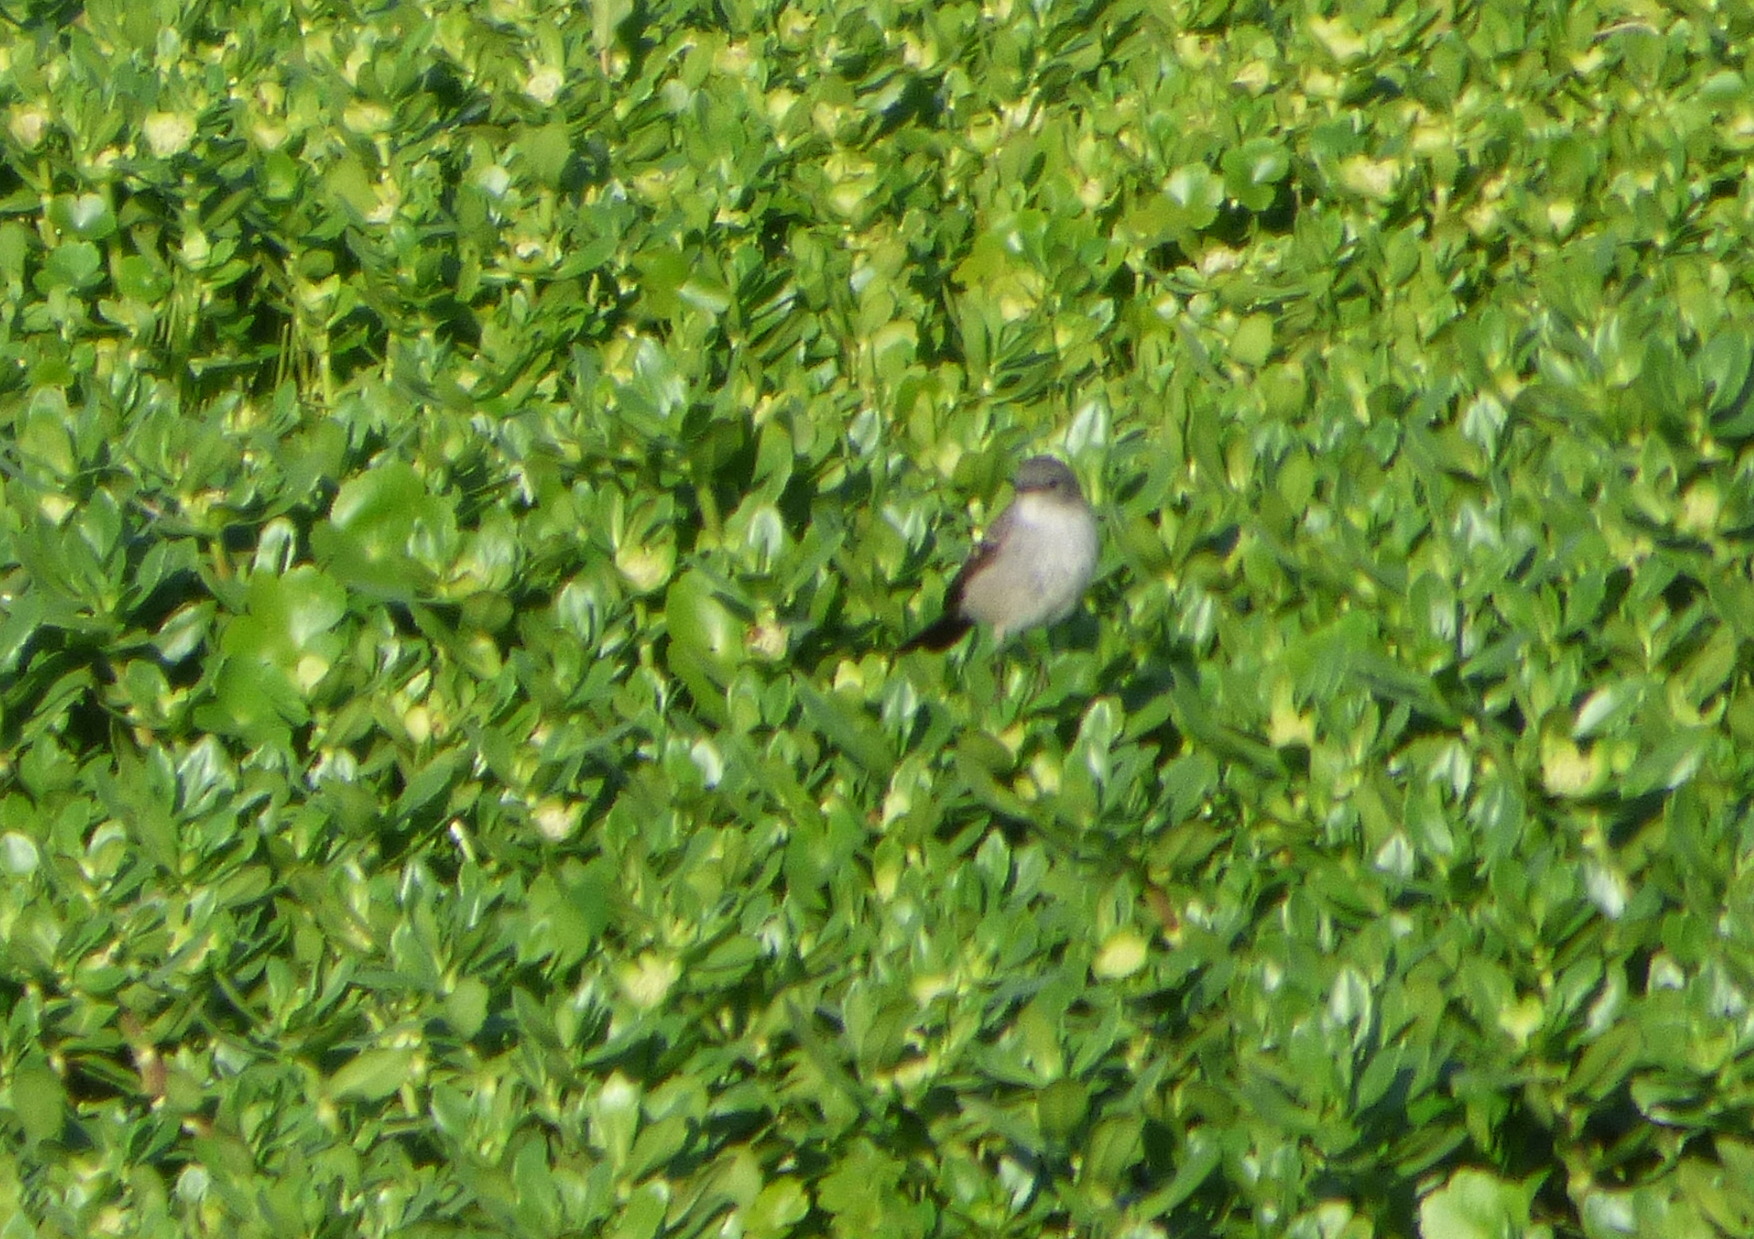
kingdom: Animalia
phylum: Chordata
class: Aves
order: Passeriformes
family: Tyrannidae
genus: Serpophaga
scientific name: Serpophaga nigricans
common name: Sooty tyrannulet
